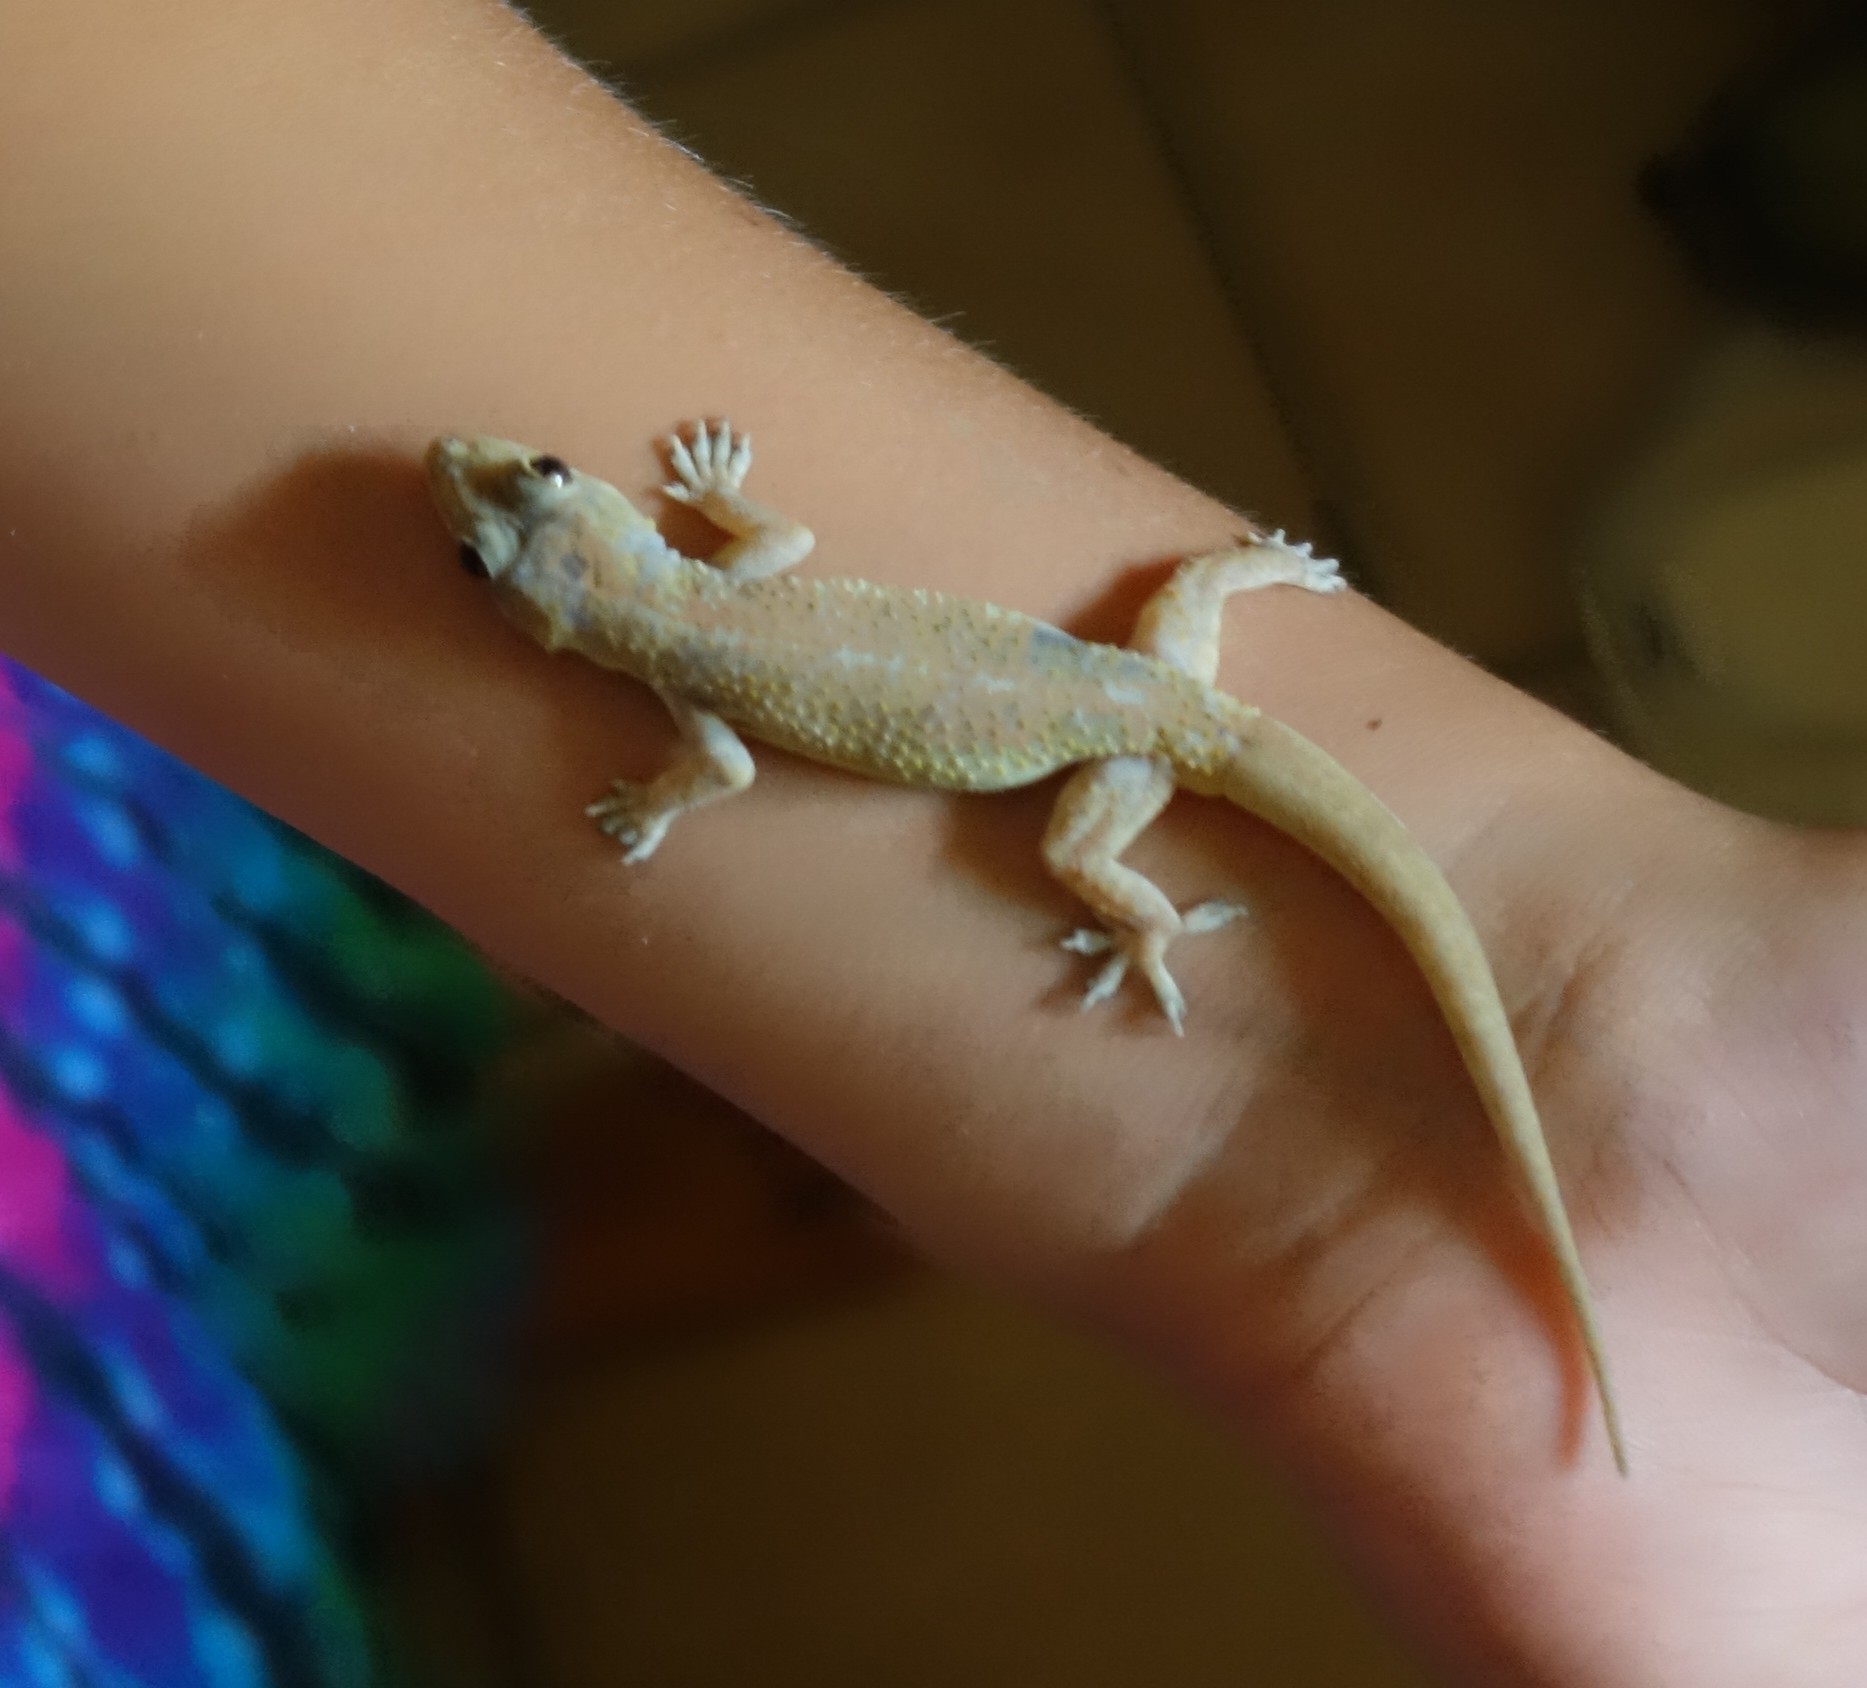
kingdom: Animalia
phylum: Chordata
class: Squamata
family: Gekkonidae
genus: Hemidactylus
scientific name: Hemidactylus mabouia
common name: House gecko
